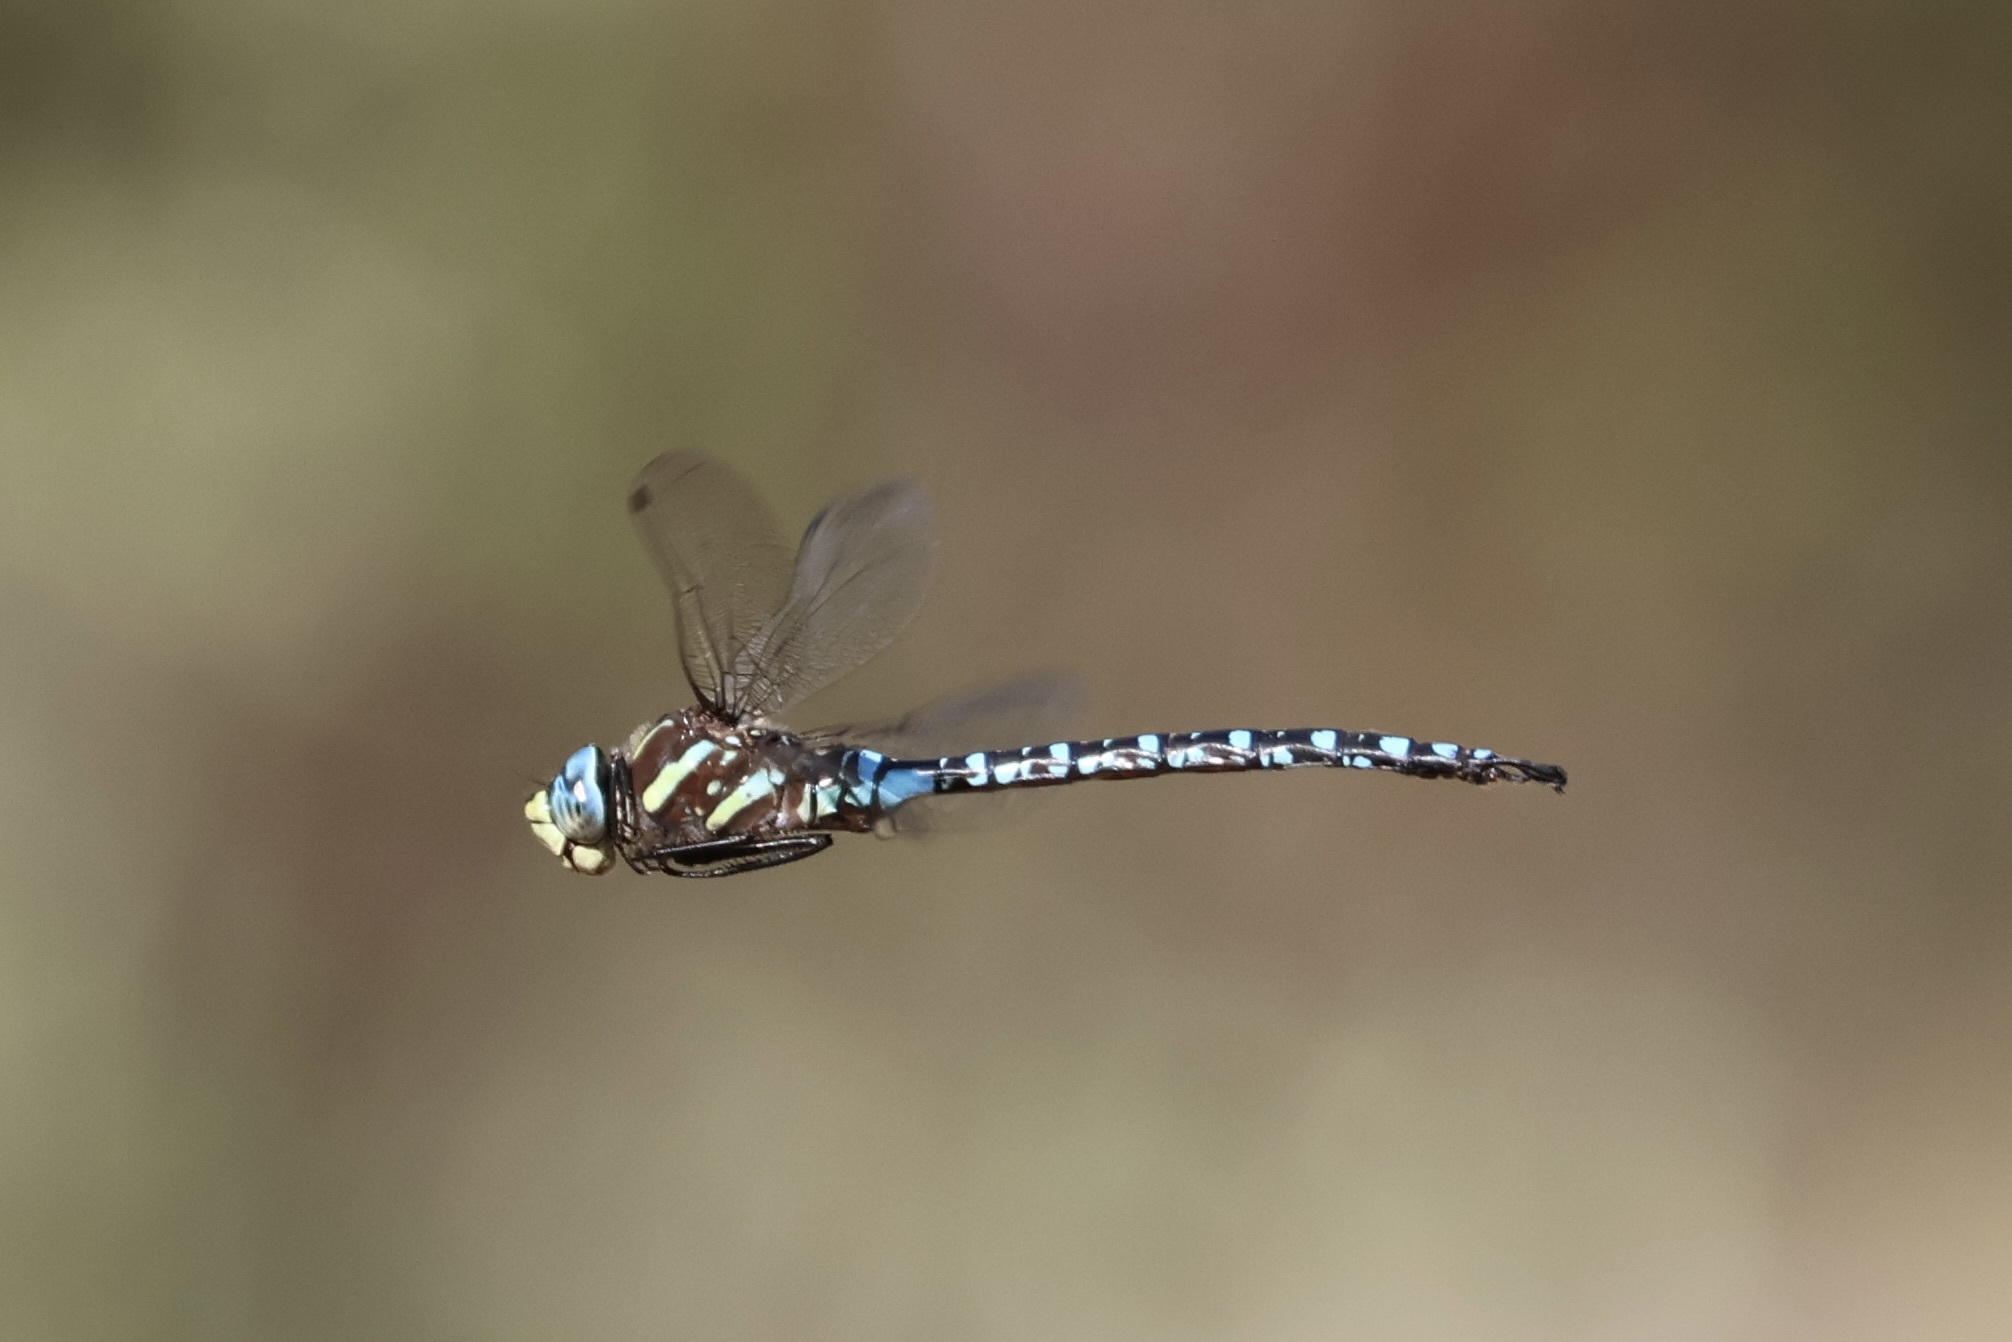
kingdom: Animalia
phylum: Arthropoda
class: Insecta
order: Odonata
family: Aeshnidae
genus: Aeshna
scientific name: Aeshna palmata
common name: Paddle-tailed darner
